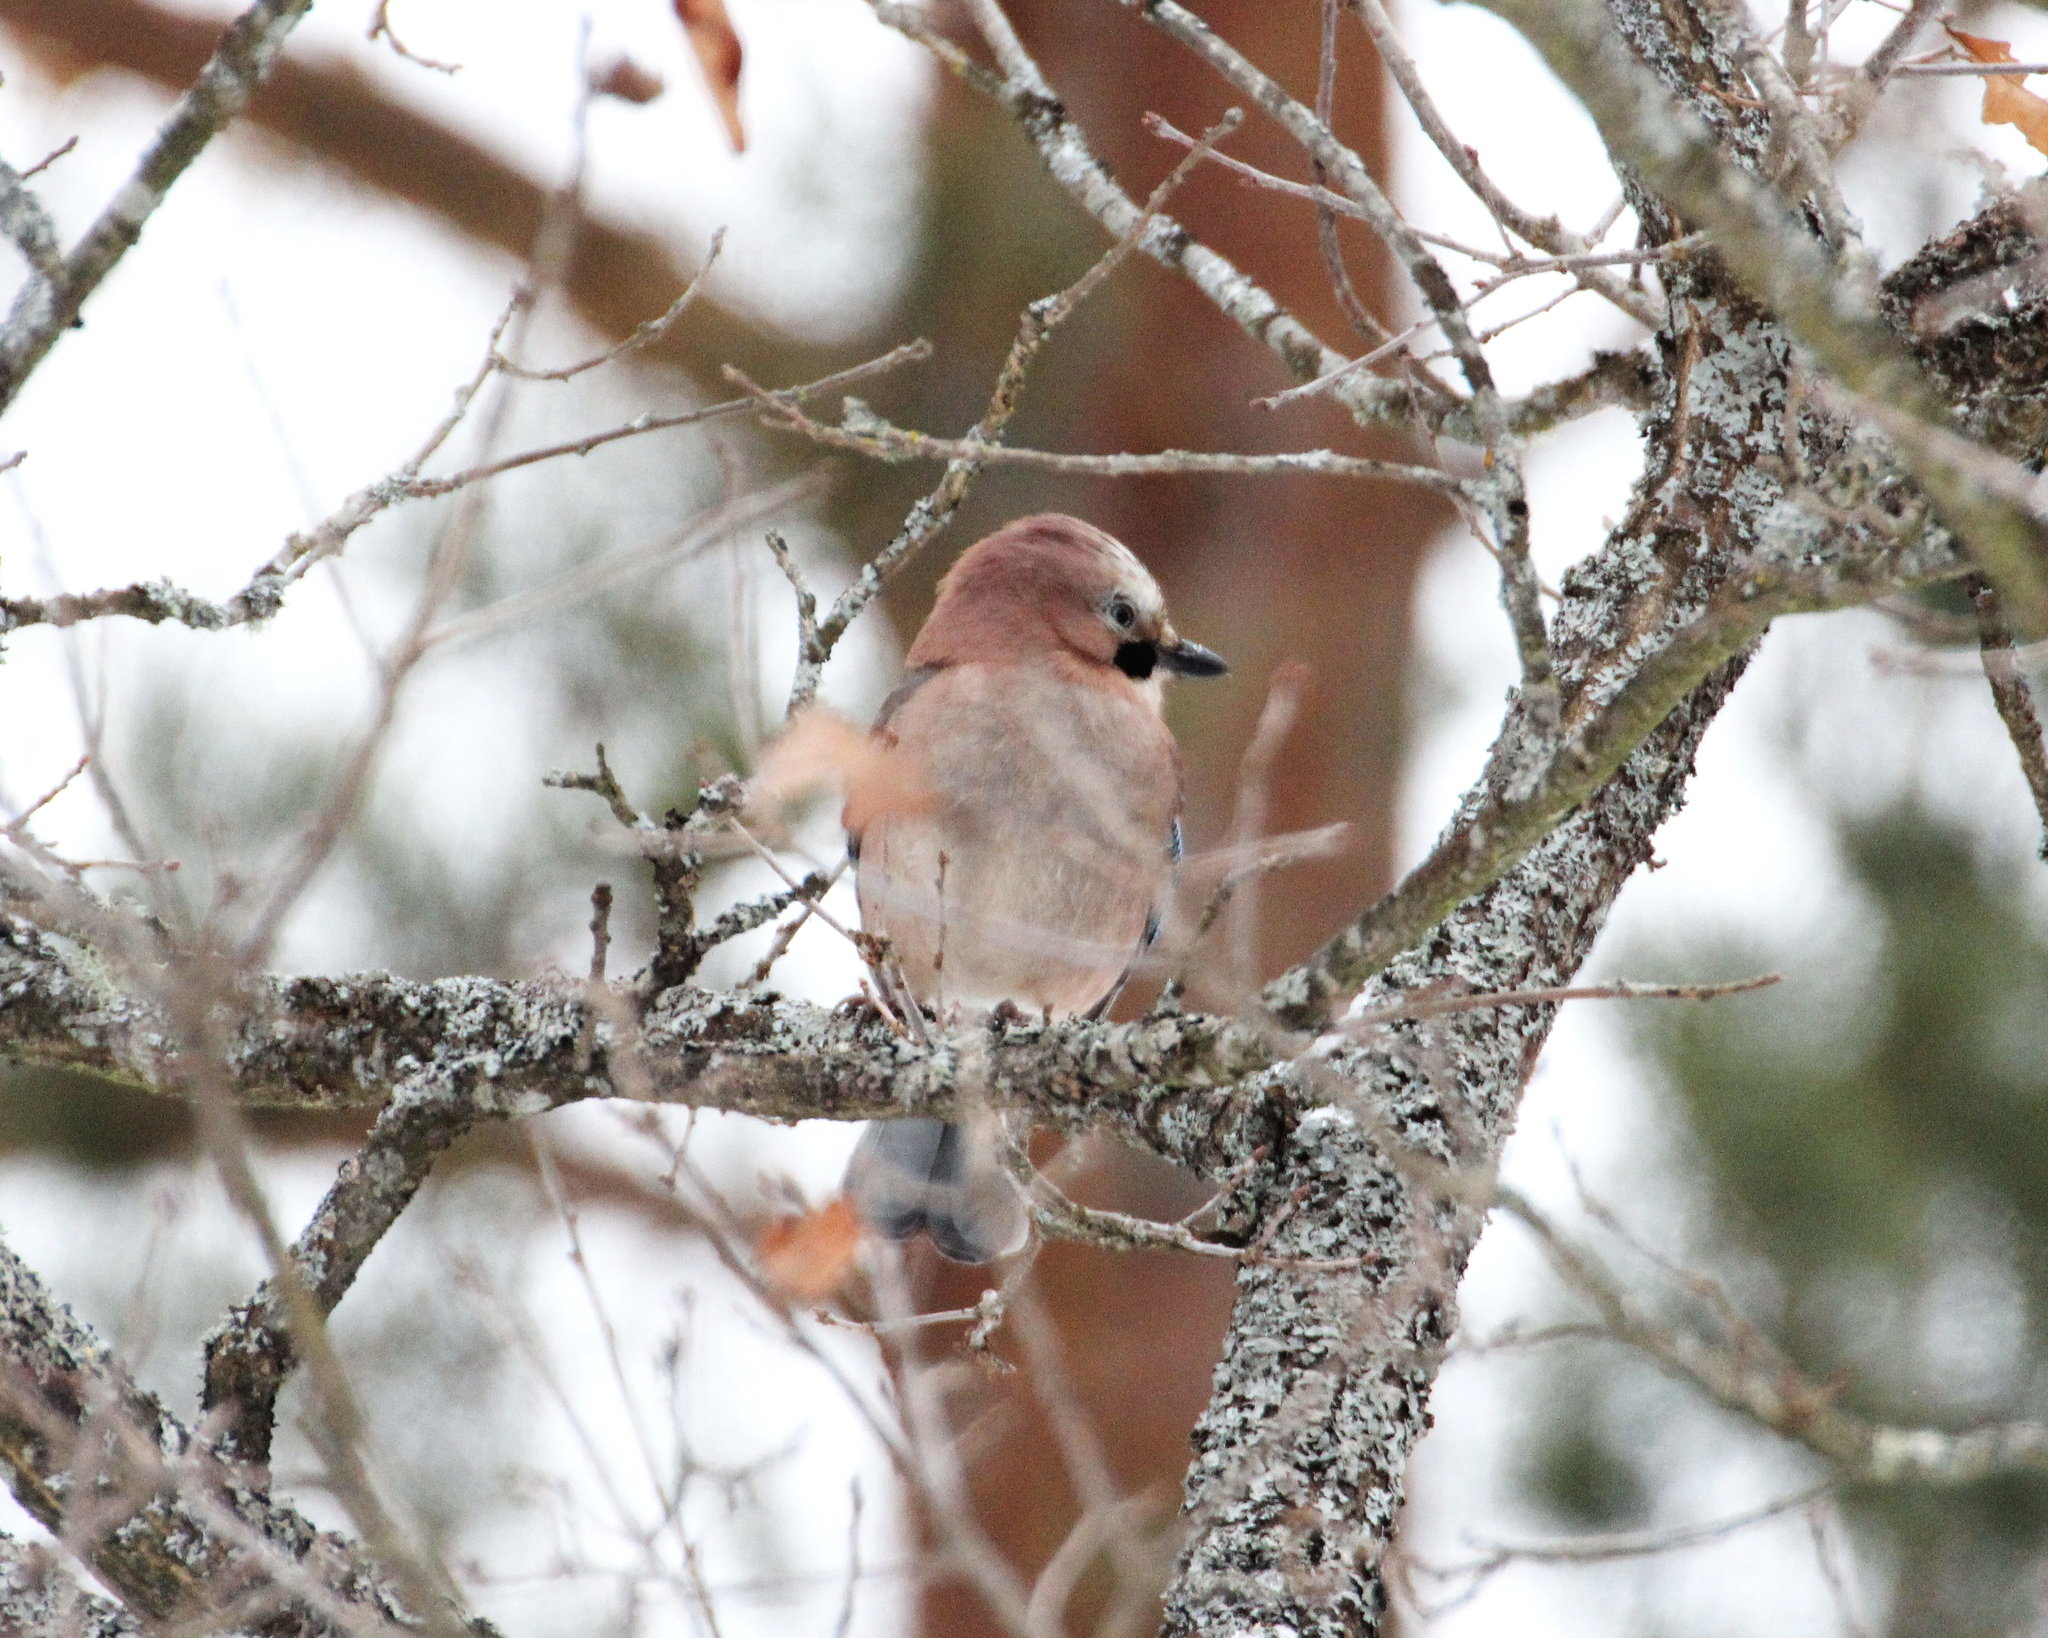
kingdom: Animalia
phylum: Chordata
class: Aves
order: Passeriformes
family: Corvidae
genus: Garrulus
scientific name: Garrulus glandarius
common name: Eurasian jay
